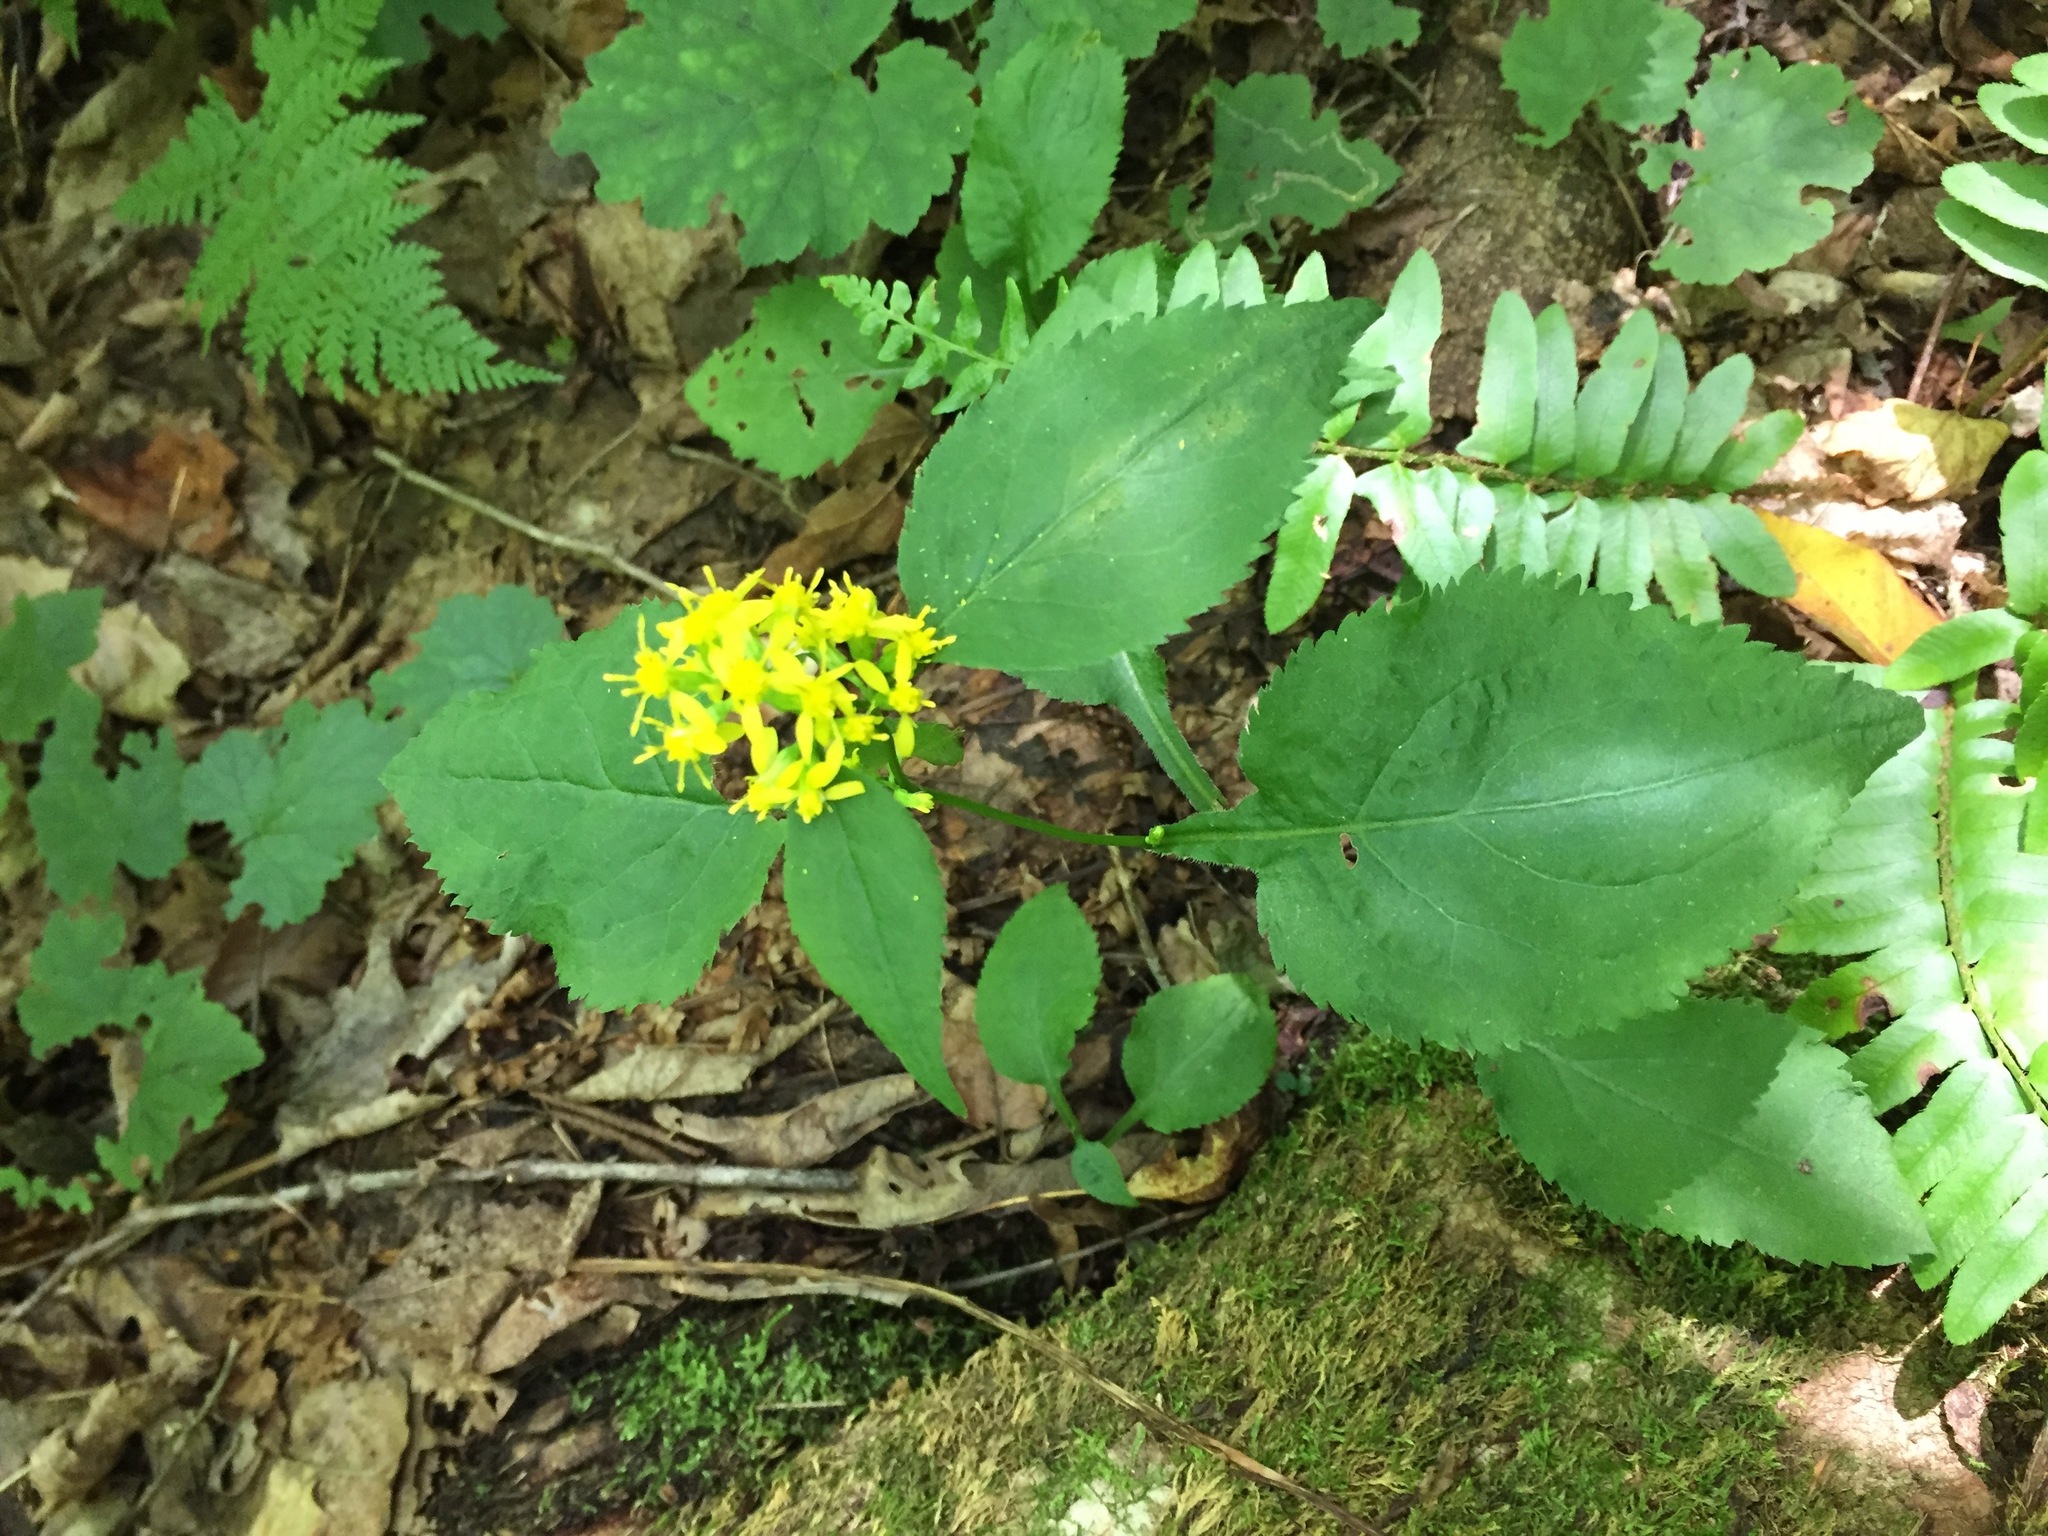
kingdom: Plantae
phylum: Tracheophyta
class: Magnoliopsida
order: Asterales
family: Asteraceae
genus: Solidago
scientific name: Solidago flexicaulis
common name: Zig-zag goldenrod
